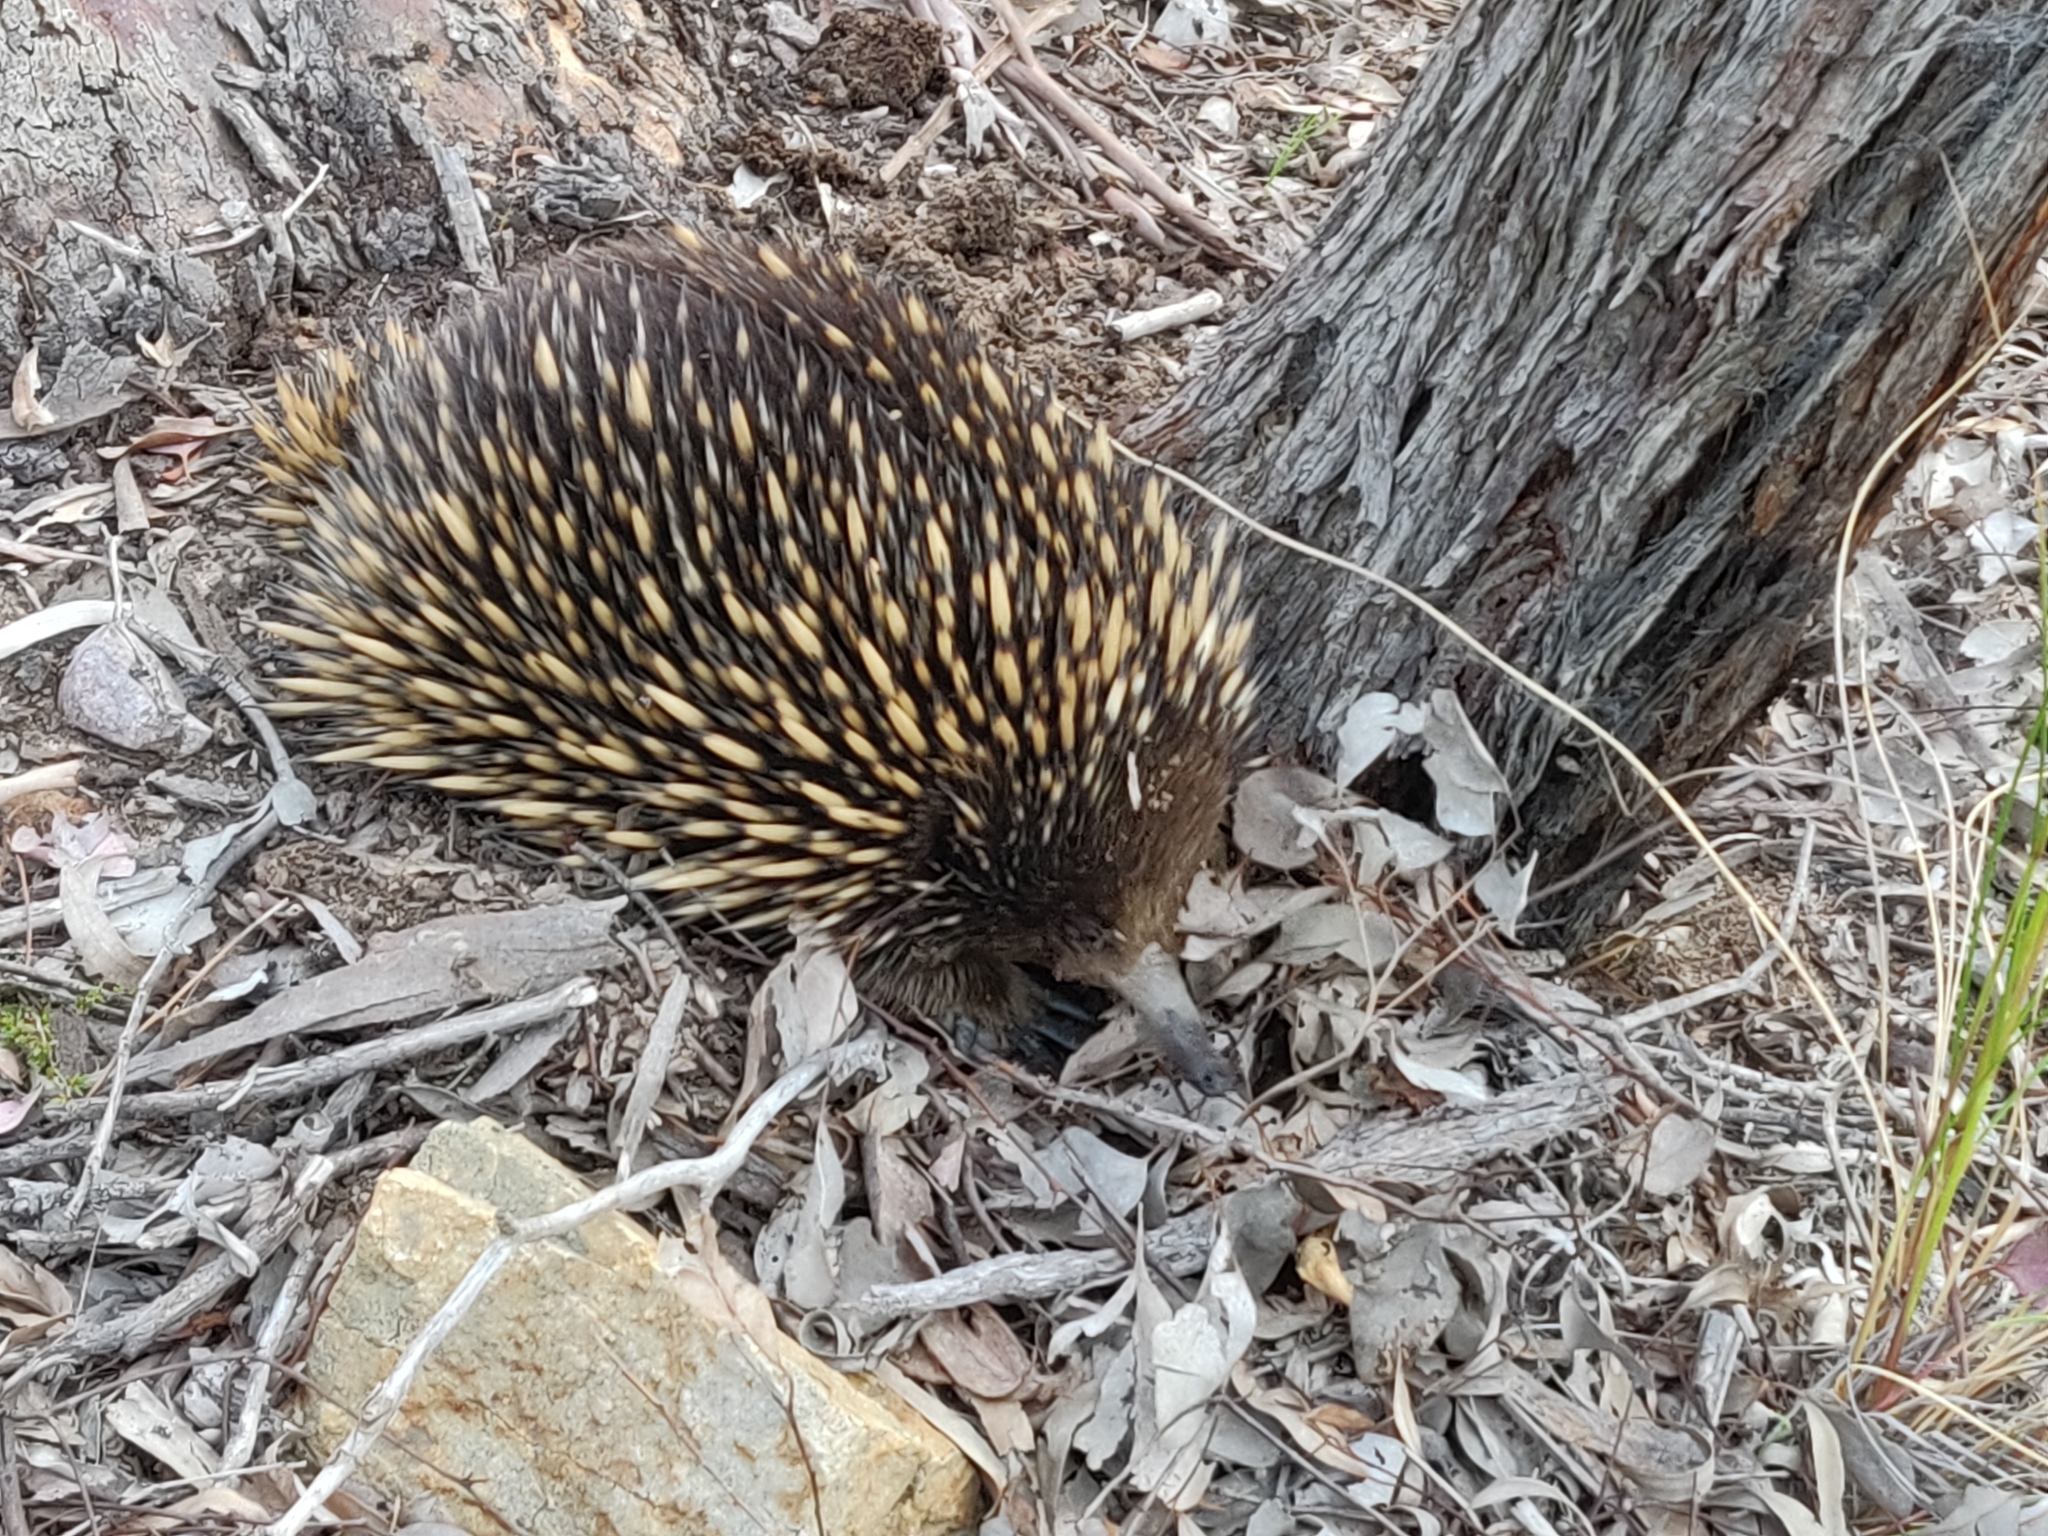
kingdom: Animalia
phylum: Chordata
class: Mammalia
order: Monotremata
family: Tachyglossidae
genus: Tachyglossus
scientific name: Tachyglossus aculeatus
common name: Short-beaked echidna
